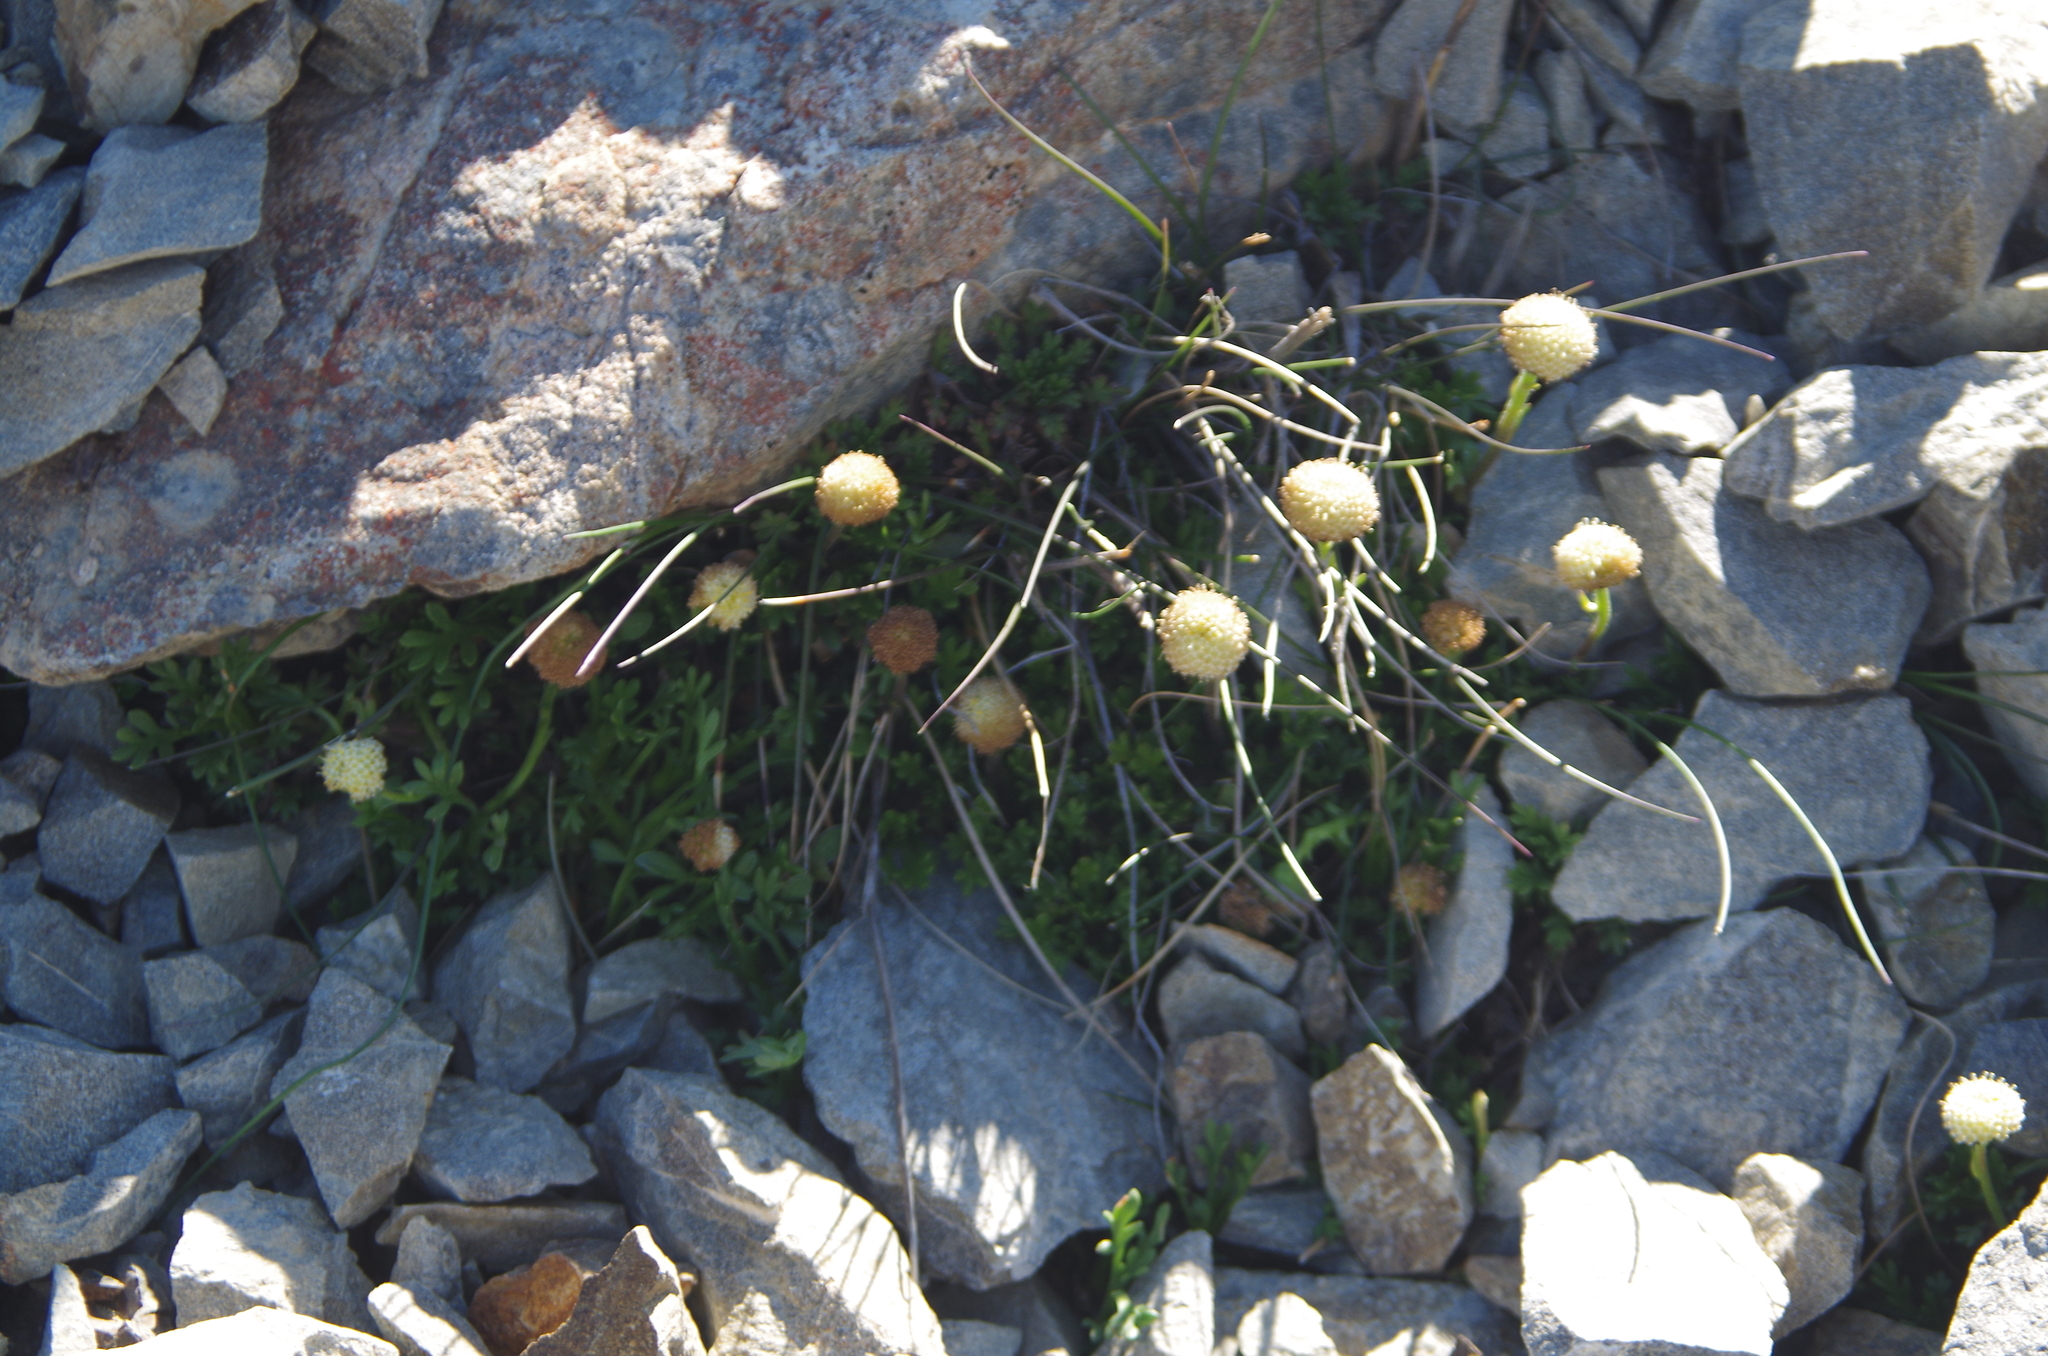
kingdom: Plantae
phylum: Tracheophyta
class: Magnoliopsida
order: Asterales
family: Asteraceae
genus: Leptinella
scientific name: Leptinella pyrethrifolia
